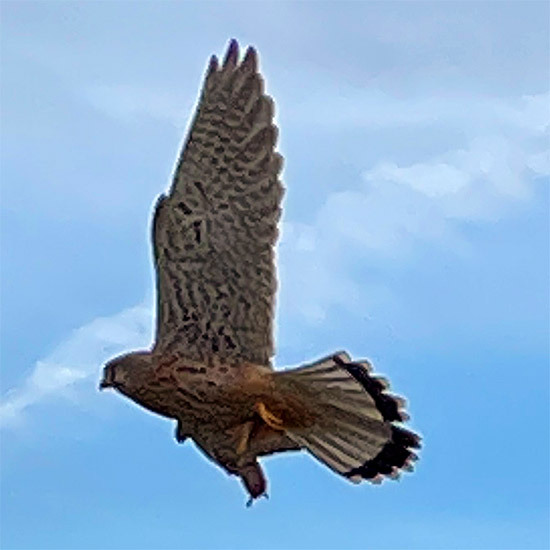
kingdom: Animalia
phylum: Chordata
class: Aves
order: Falconiformes
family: Falconidae
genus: Falco
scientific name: Falco tinnunculus
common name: Common kestrel
